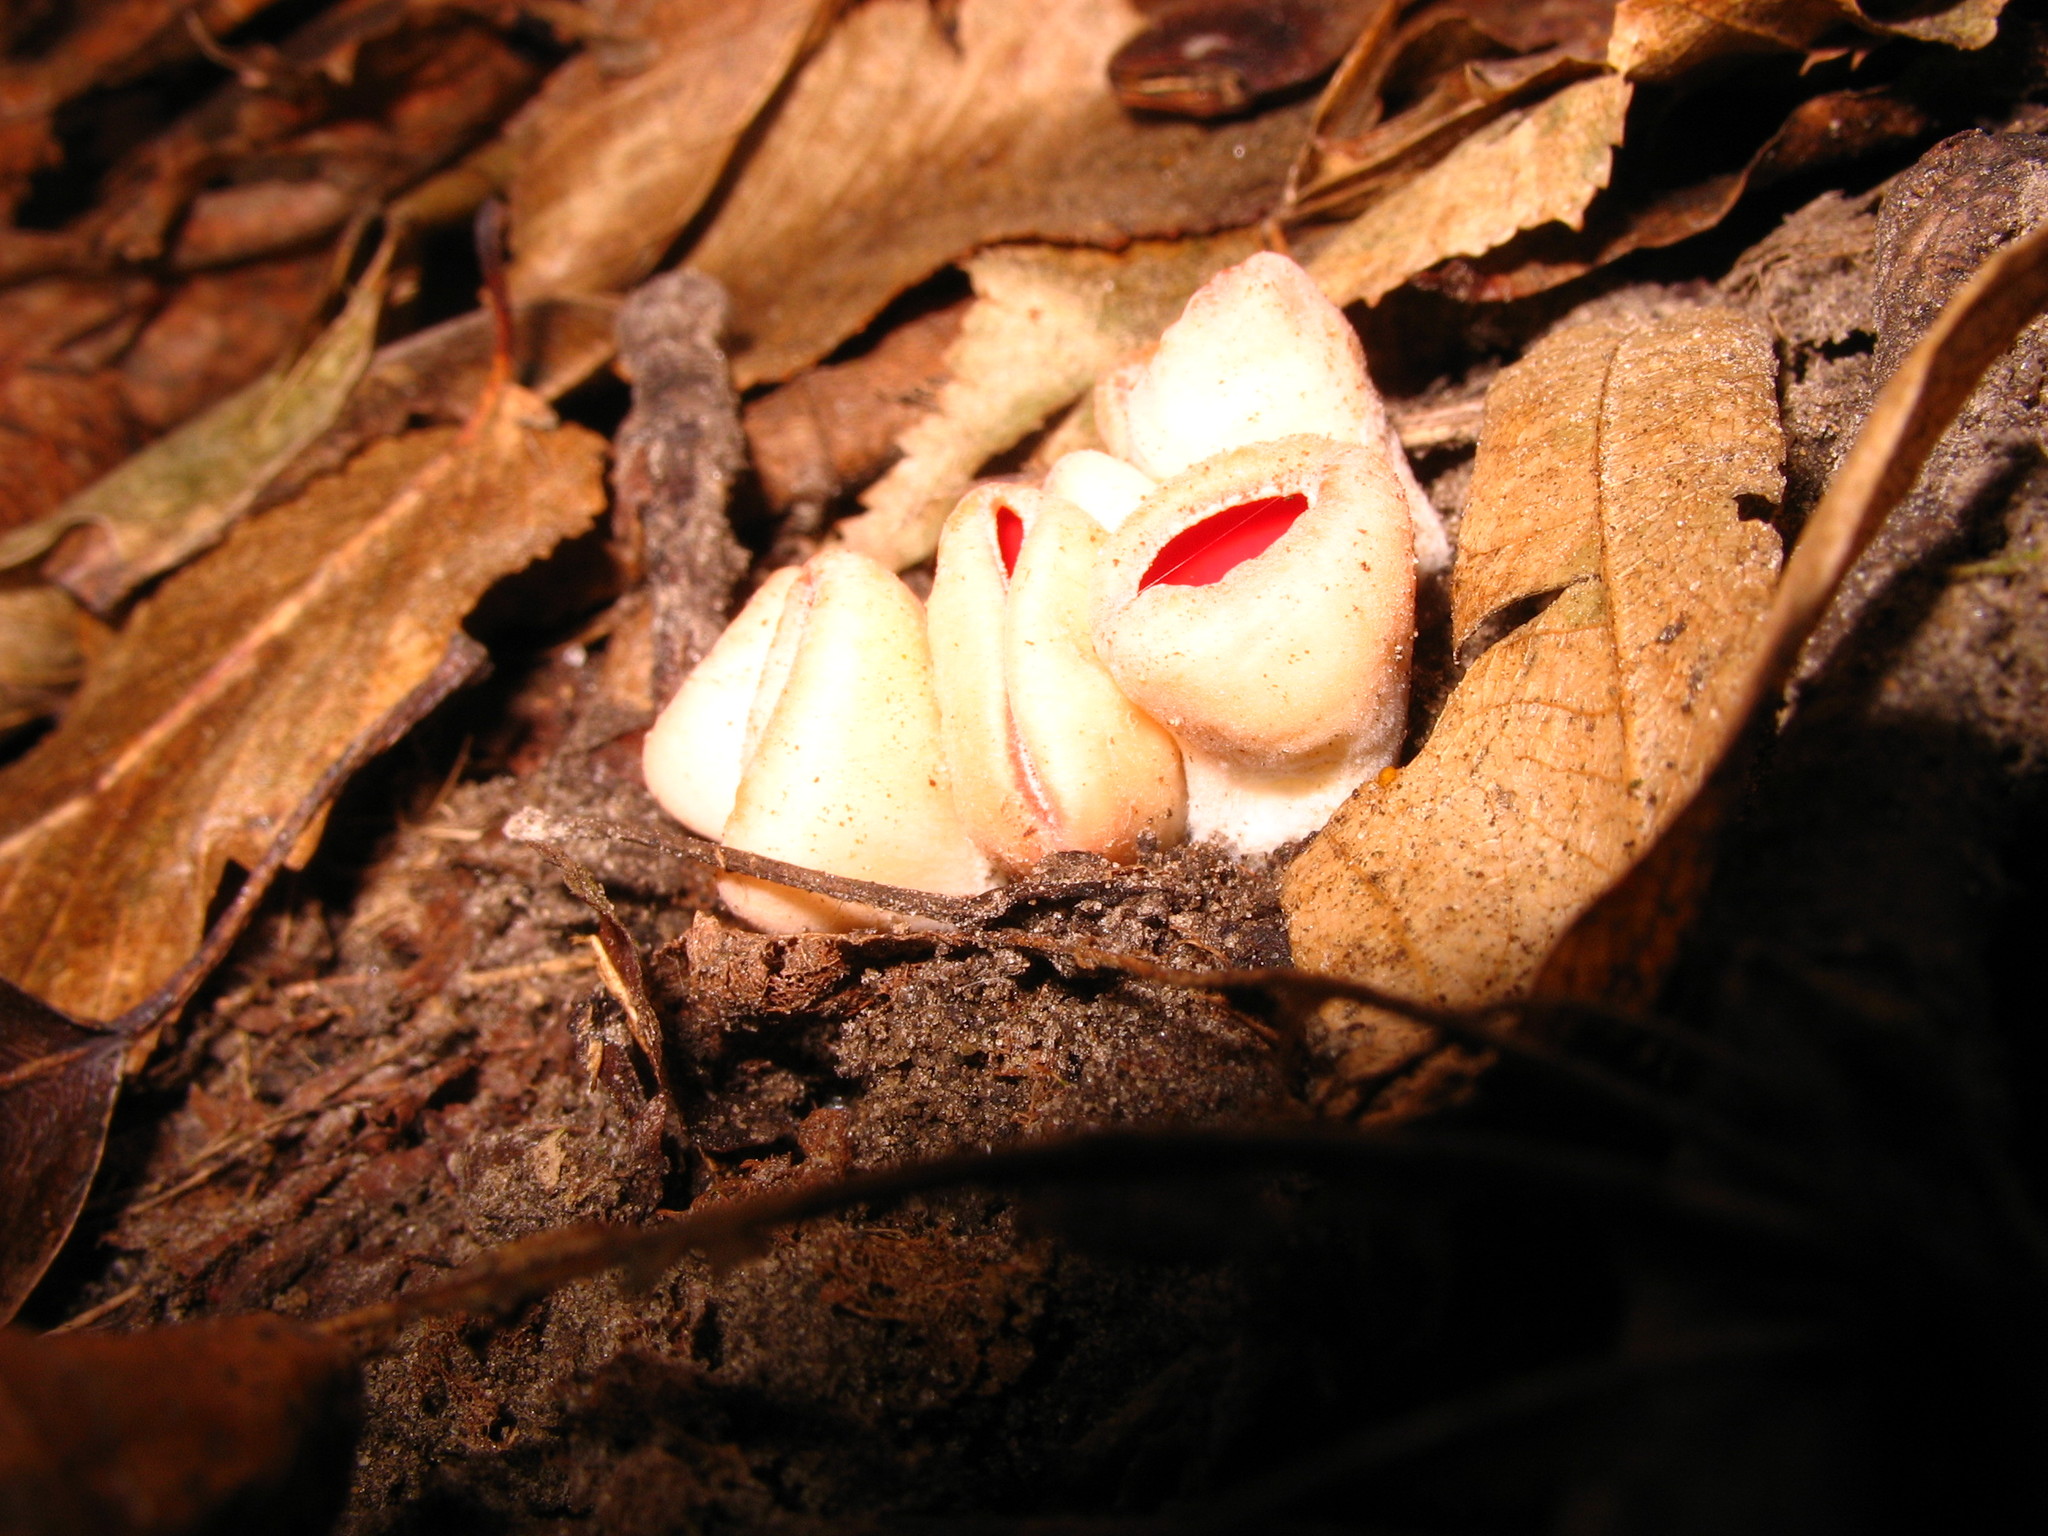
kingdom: Fungi
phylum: Ascomycota
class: Pezizomycetes
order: Pezizales
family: Sarcoscyphaceae
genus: Sarcoscypha
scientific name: Sarcoscypha austriaca
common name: Scarlet elfcup
